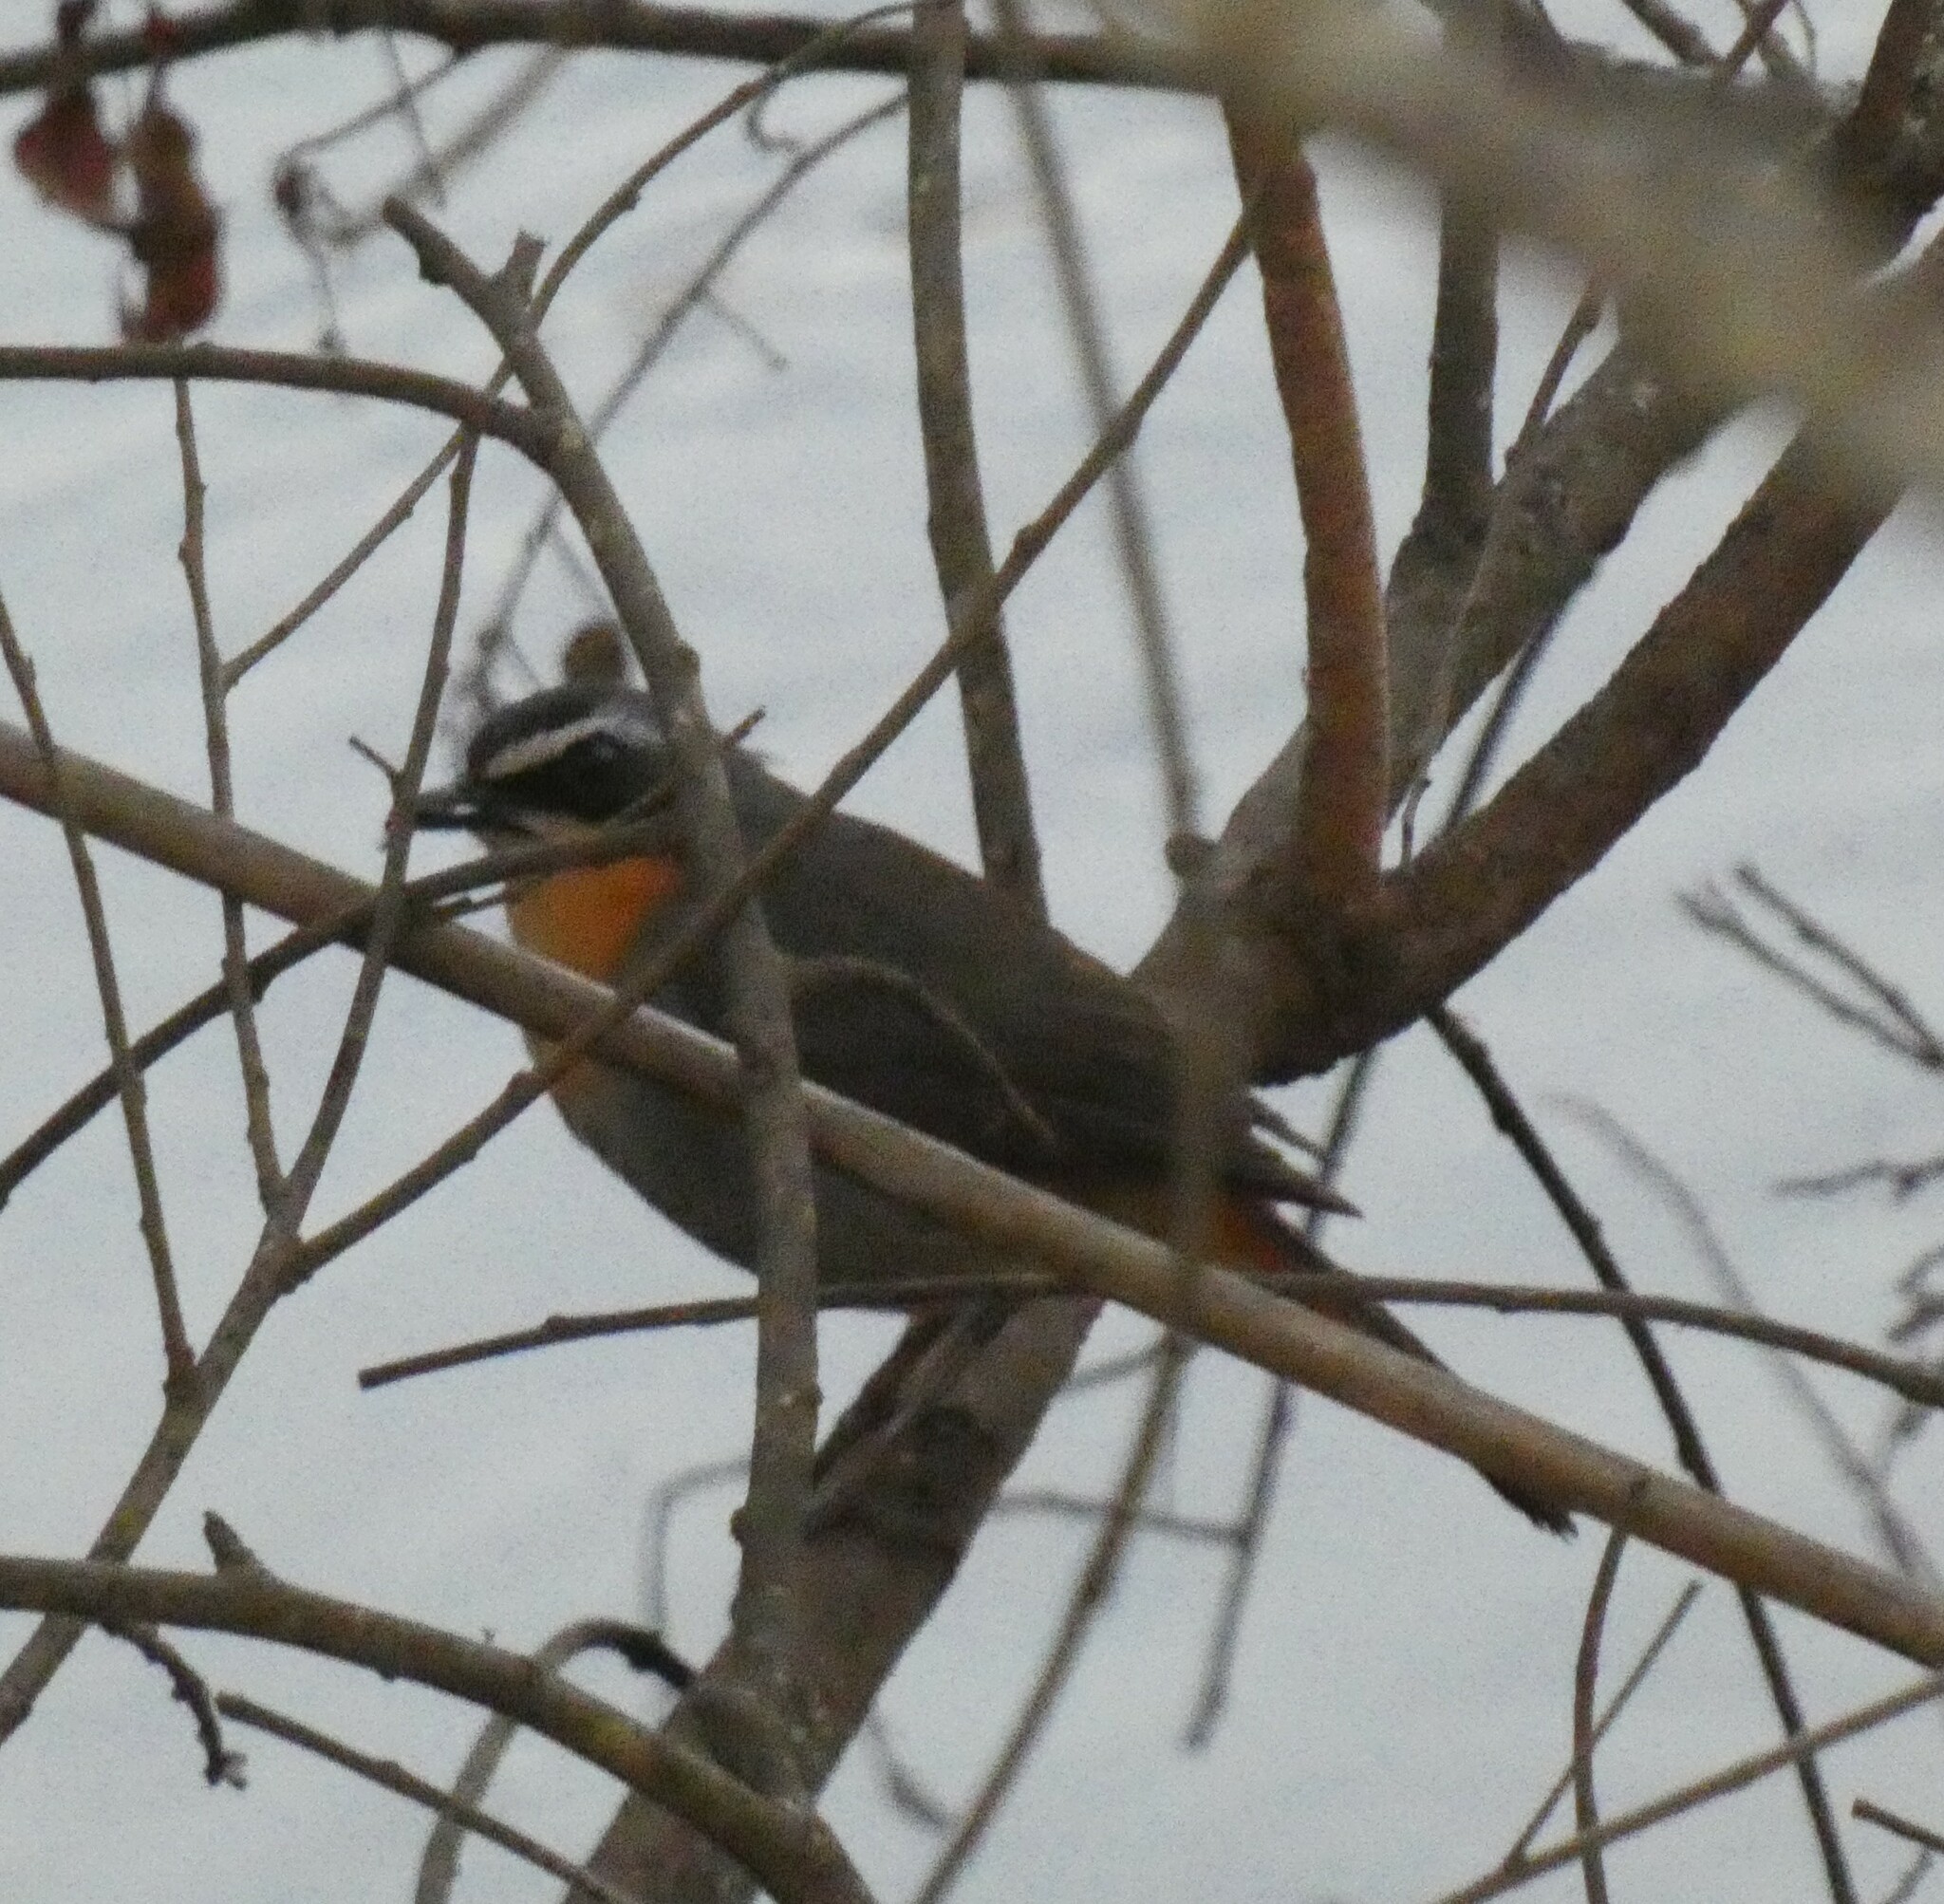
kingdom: Animalia
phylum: Chordata
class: Aves
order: Passeriformes
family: Muscicapidae
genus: Cossypha
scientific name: Cossypha caffra
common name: Cape robin-chat
